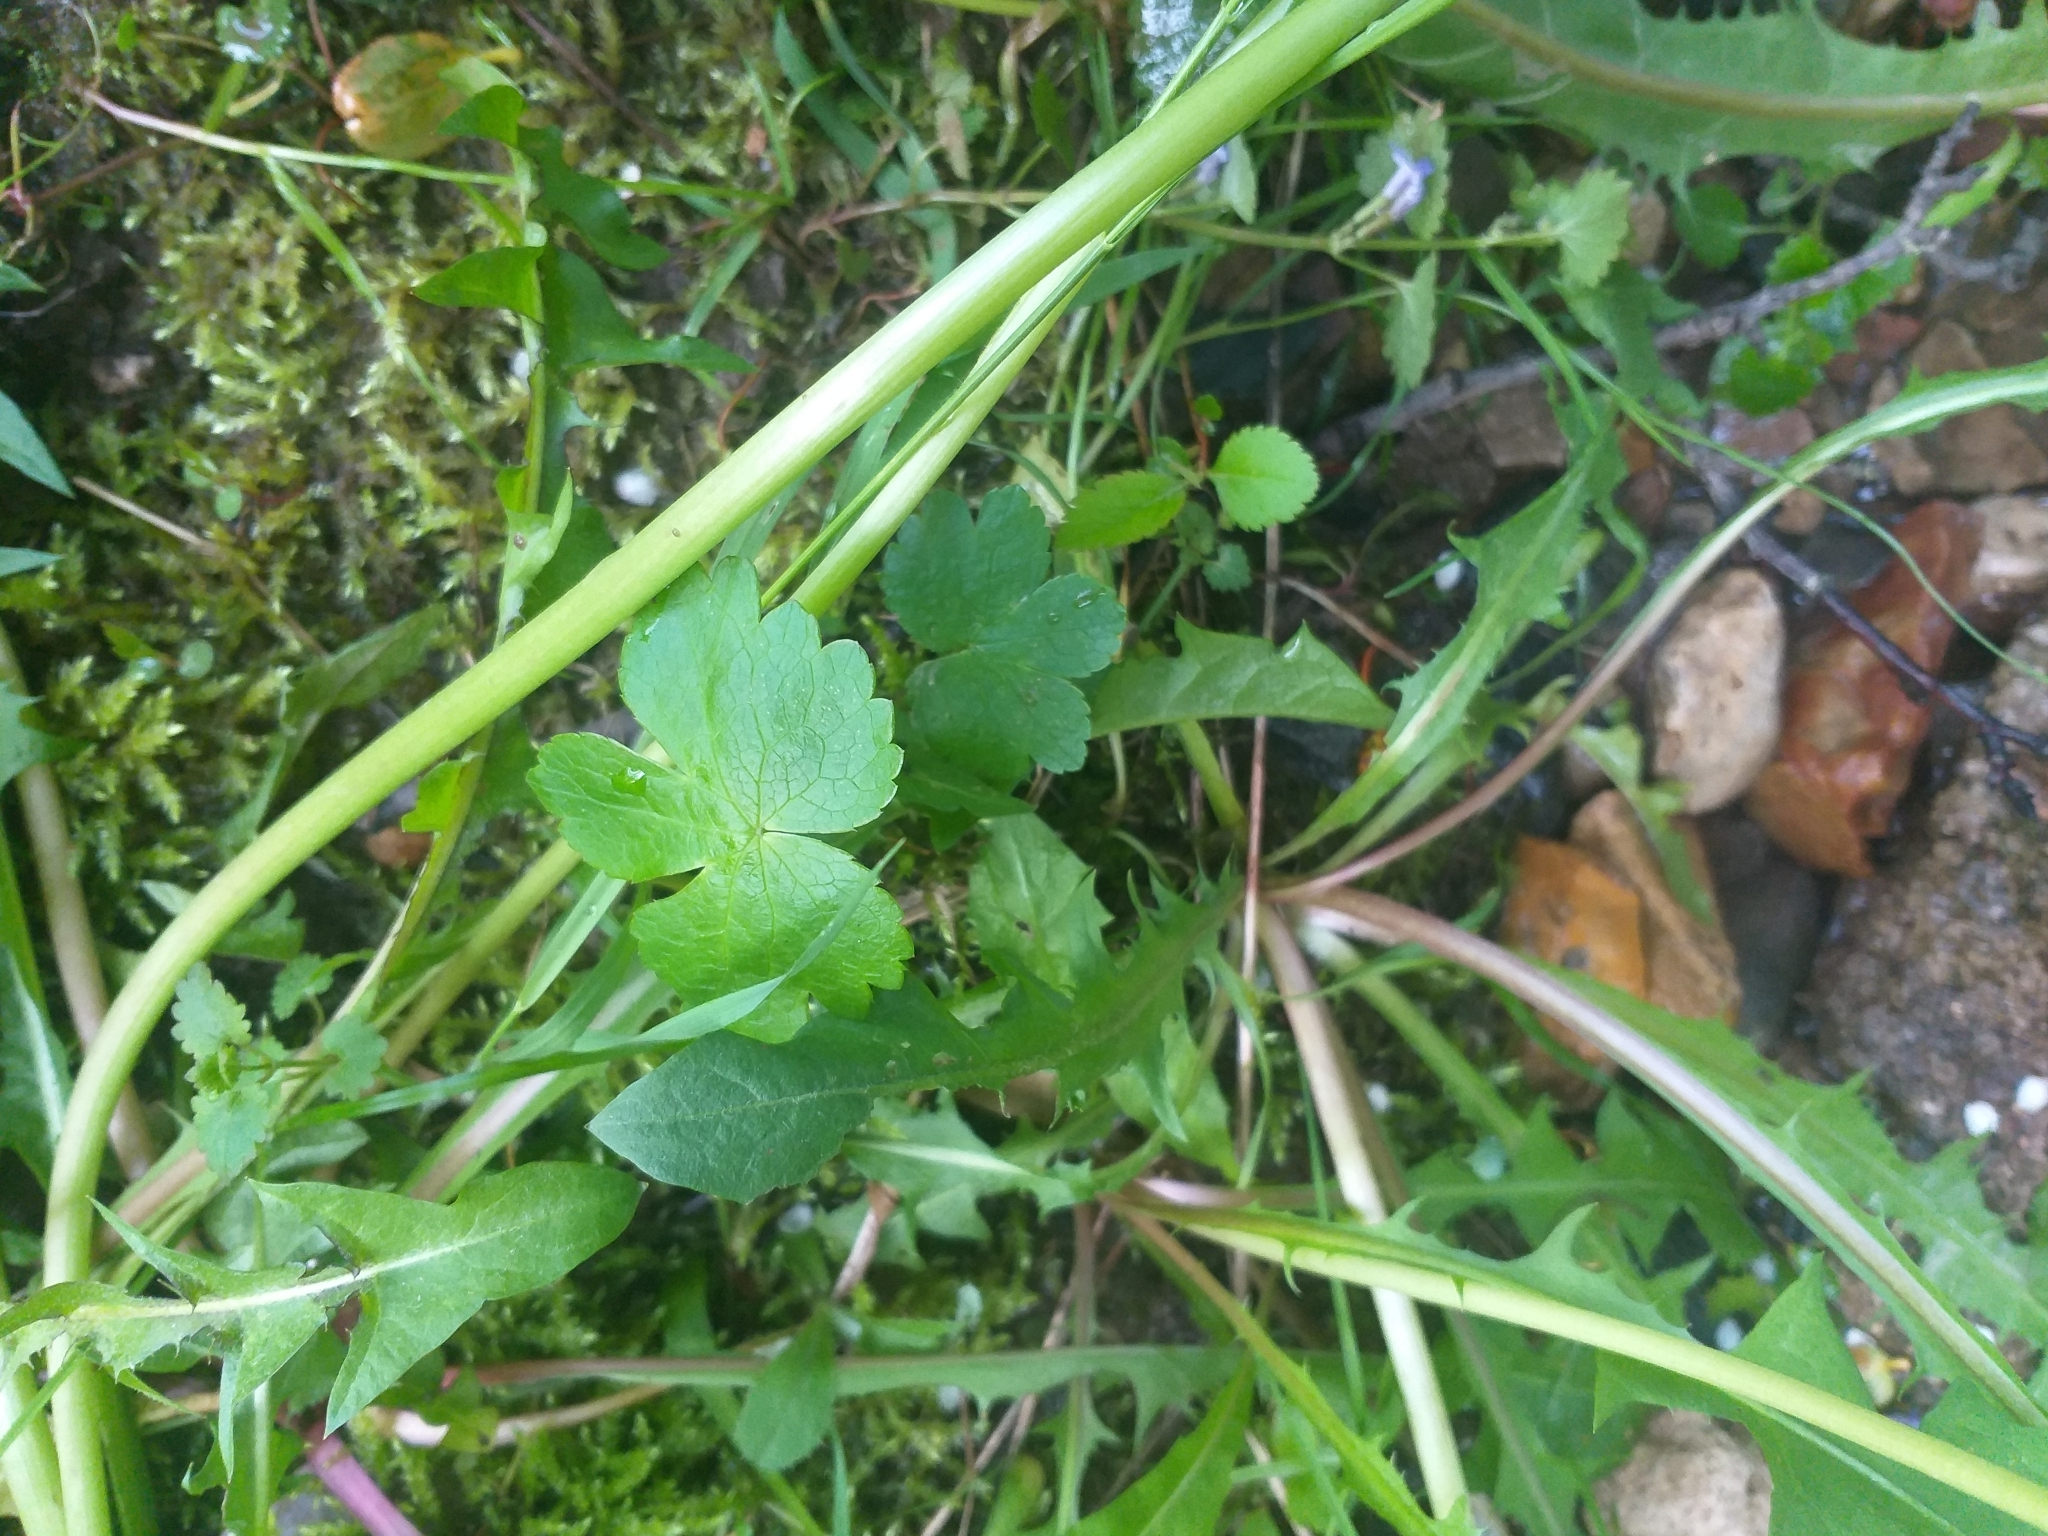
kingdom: Plantae
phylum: Tracheophyta
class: Magnoliopsida
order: Apiales
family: Apiaceae
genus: Astrantia
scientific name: Astrantia major
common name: Greater masterwort
